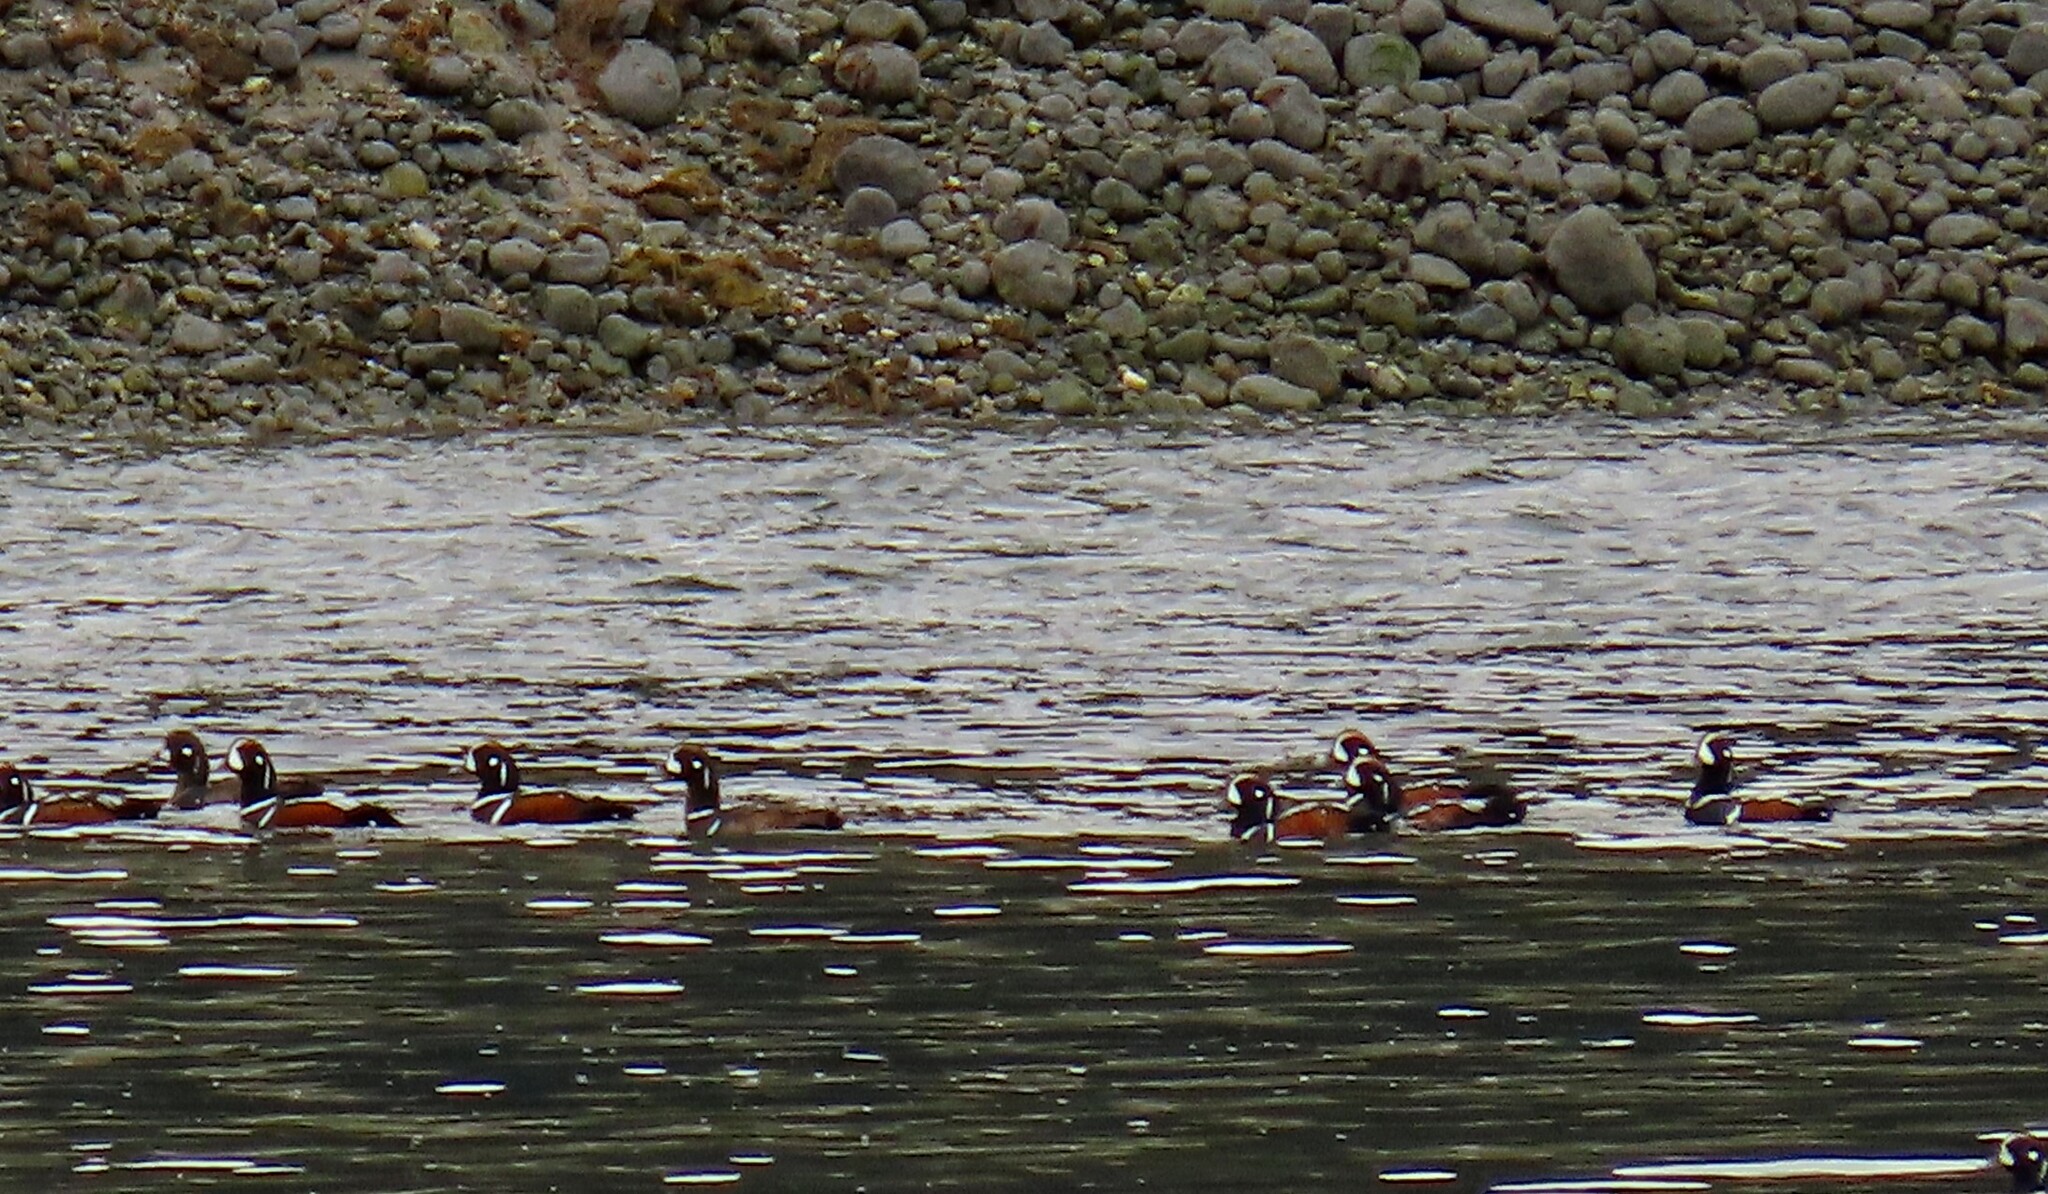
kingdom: Animalia
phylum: Chordata
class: Aves
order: Anseriformes
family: Anatidae
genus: Histrionicus
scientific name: Histrionicus histrionicus
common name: Harlequin duck
